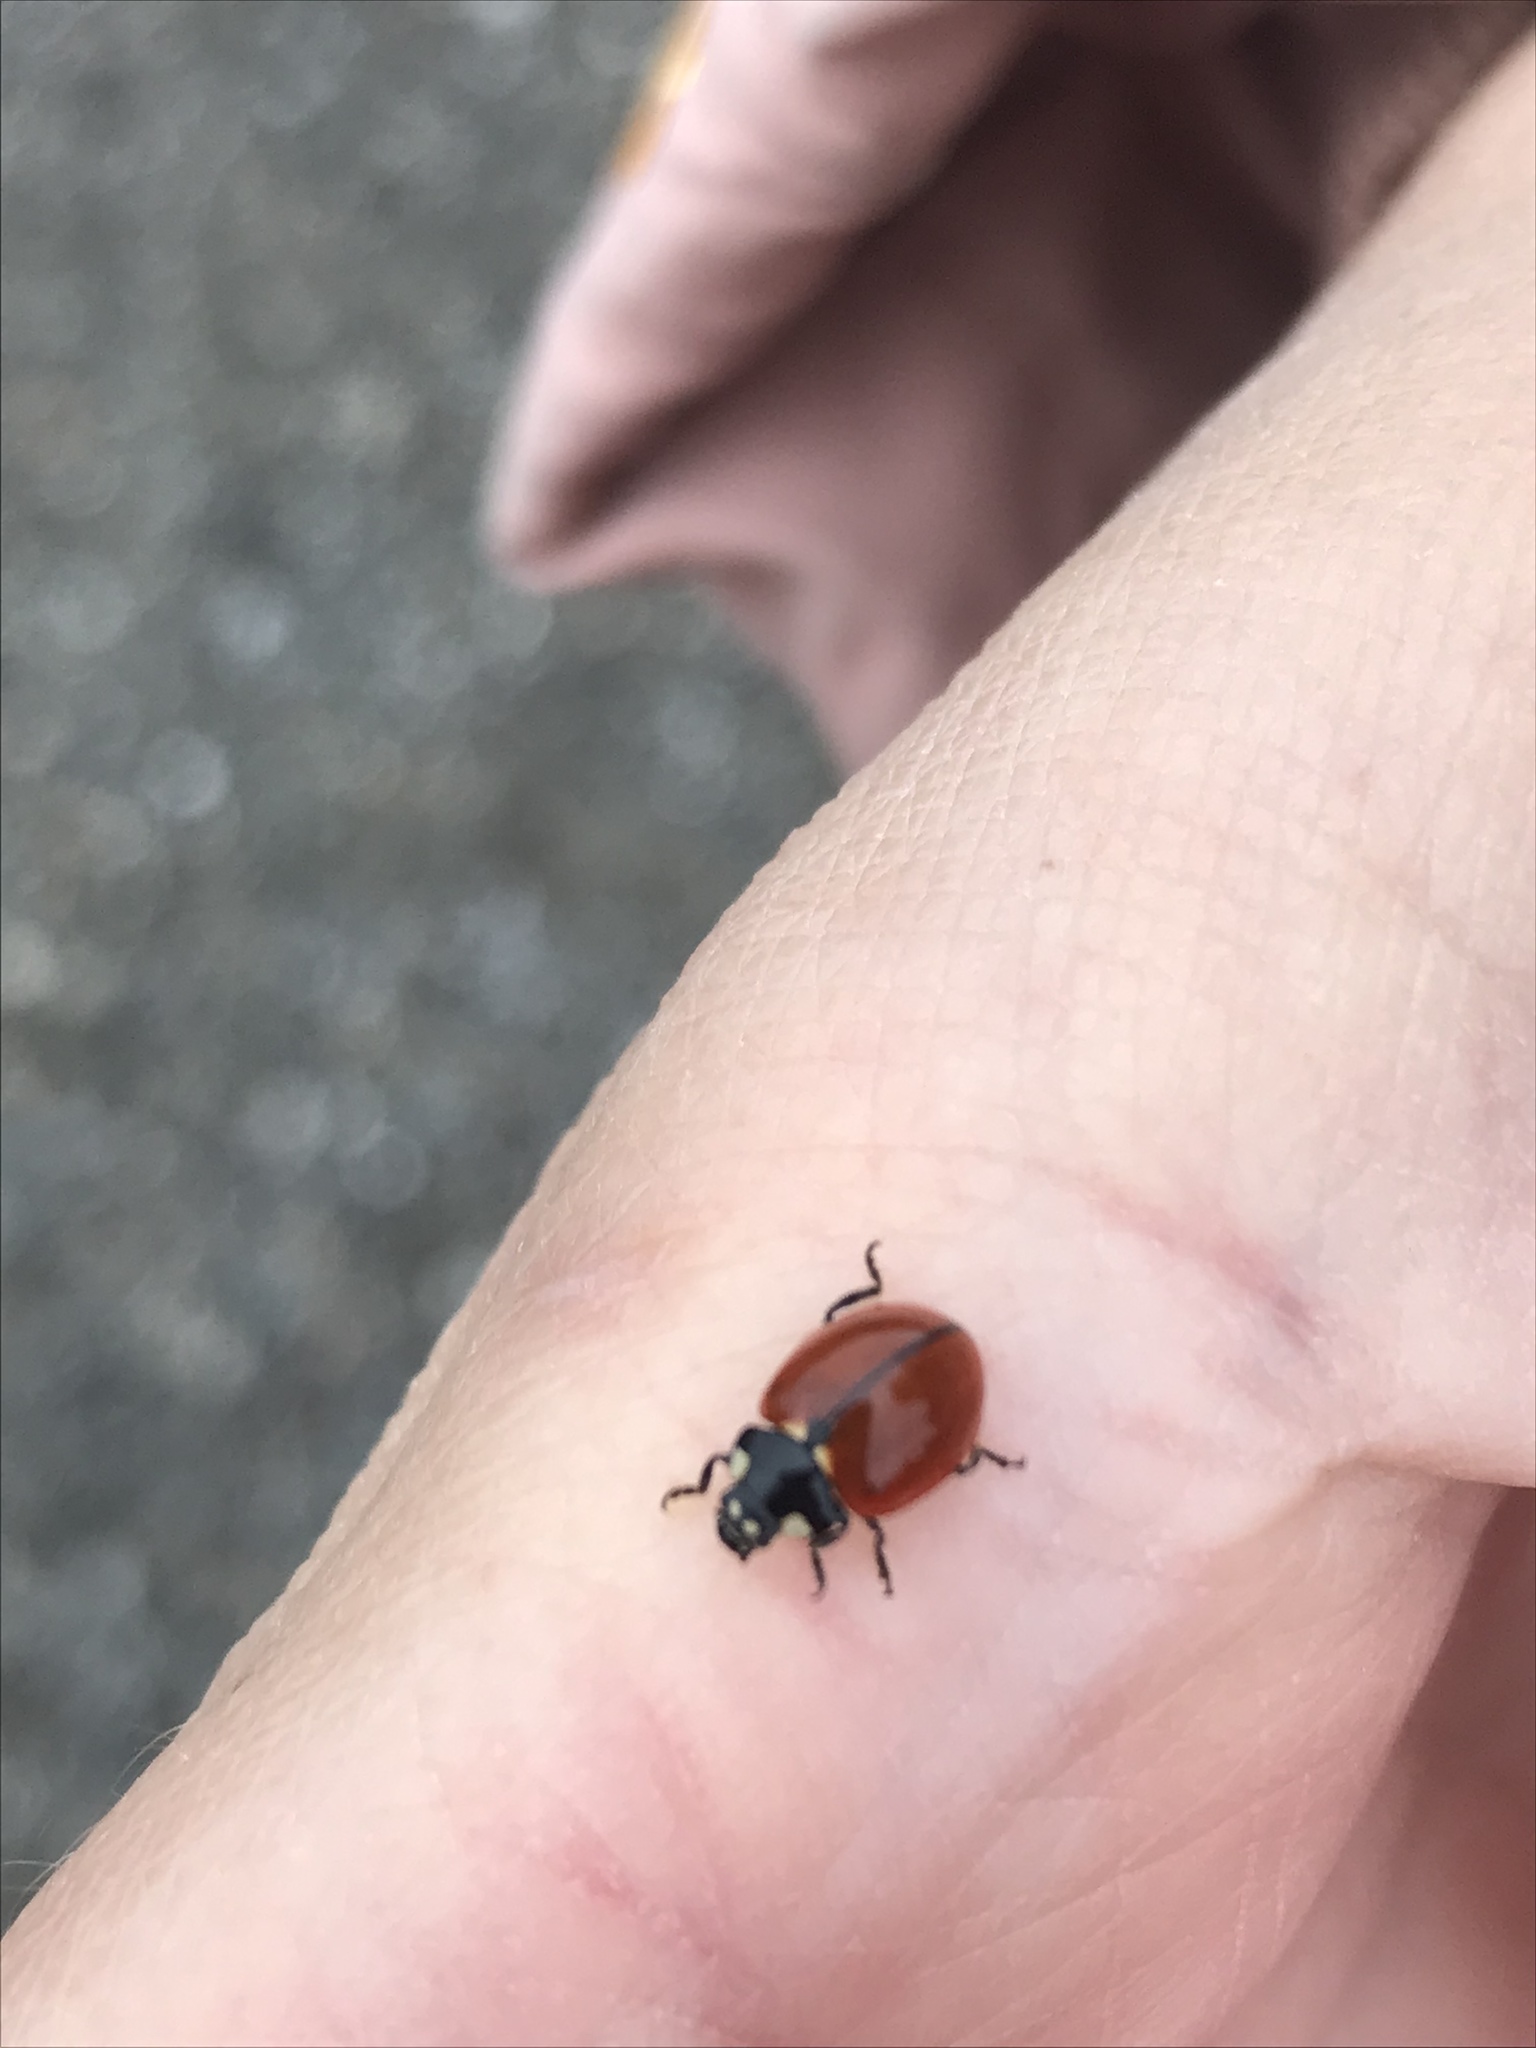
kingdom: Animalia
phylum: Arthropoda
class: Insecta
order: Coleoptera
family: Coccinellidae
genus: Coccinella
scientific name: Coccinella californica
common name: Lady beetle
